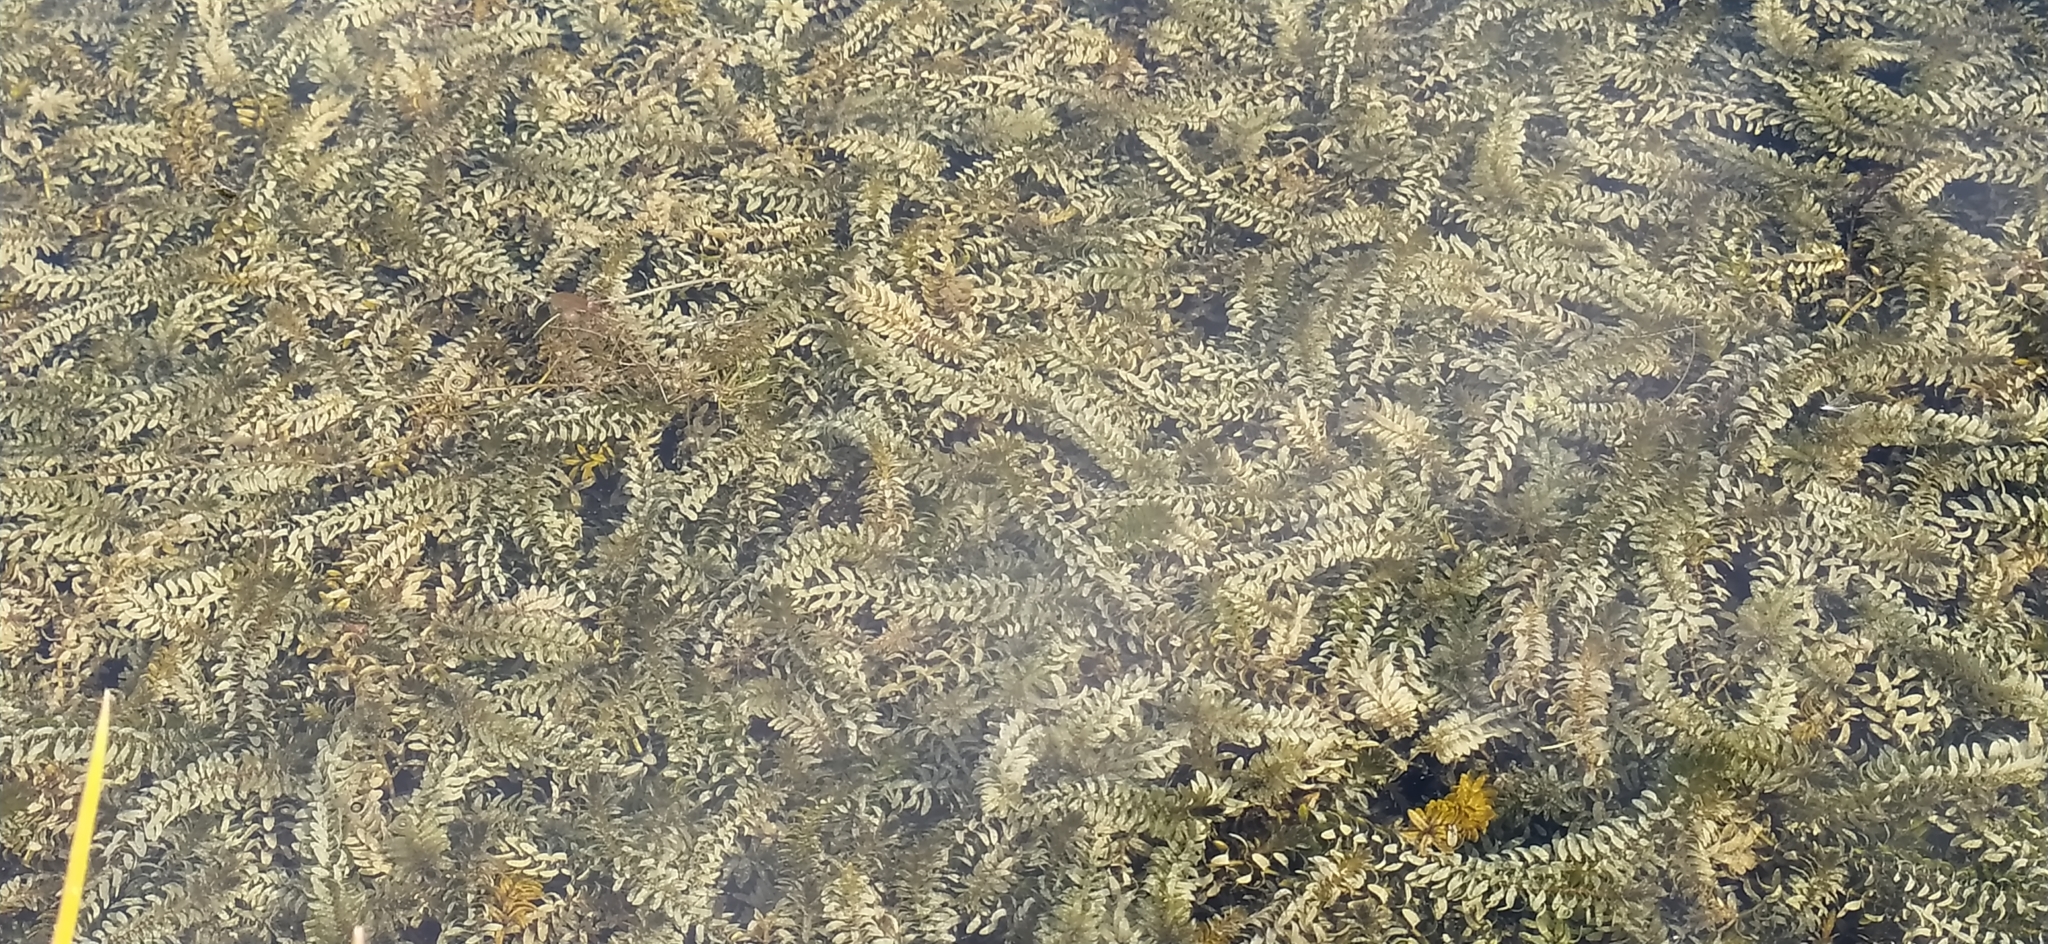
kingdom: Plantae
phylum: Tracheophyta
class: Liliopsida
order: Alismatales
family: Hydrocharitaceae
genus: Elodea
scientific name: Elodea canadensis
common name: Canadian waterweed
